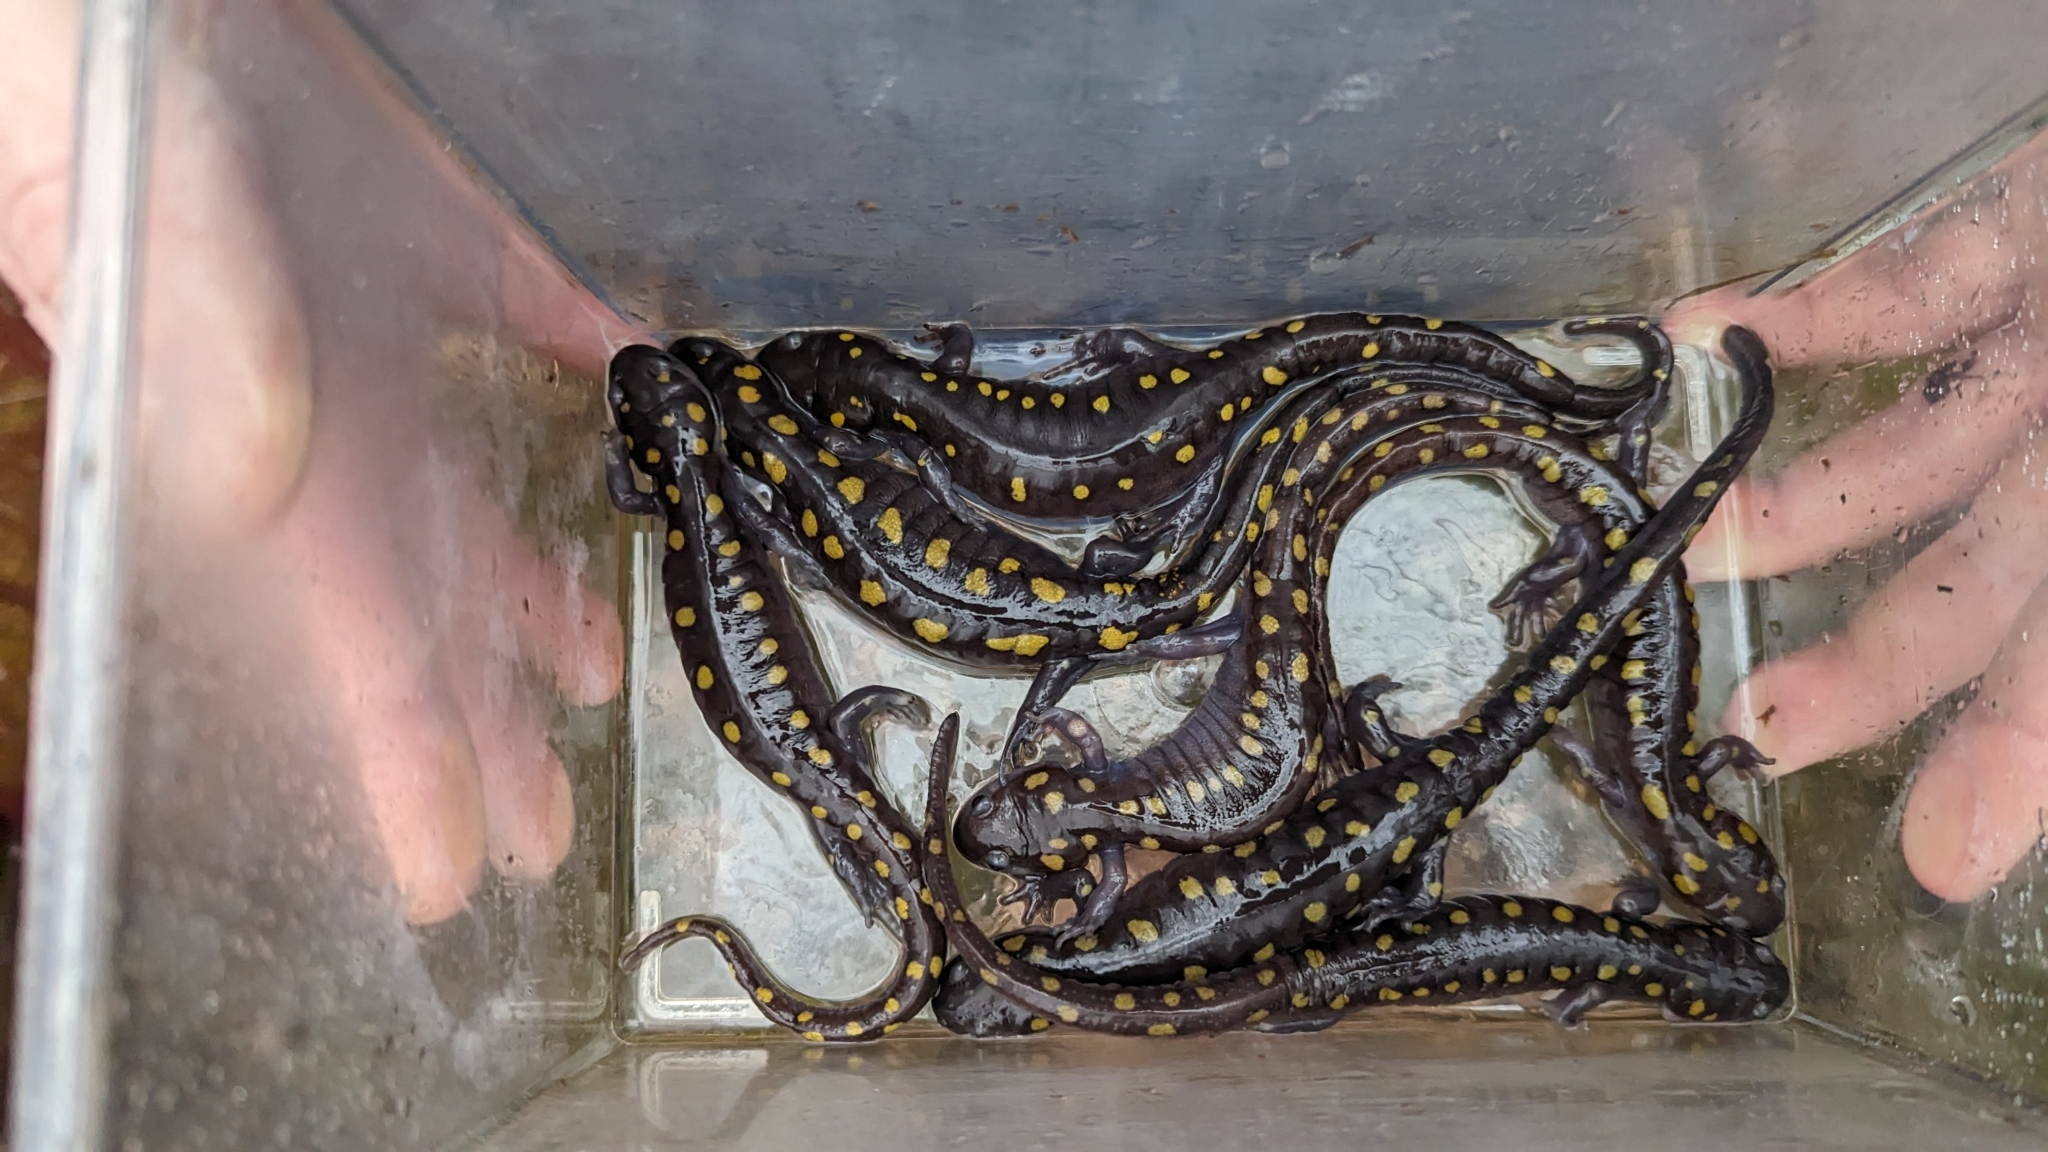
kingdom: Animalia
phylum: Chordata
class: Amphibia
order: Caudata
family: Ambystomatidae
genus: Ambystoma
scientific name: Ambystoma maculatum
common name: Spotted salamander
